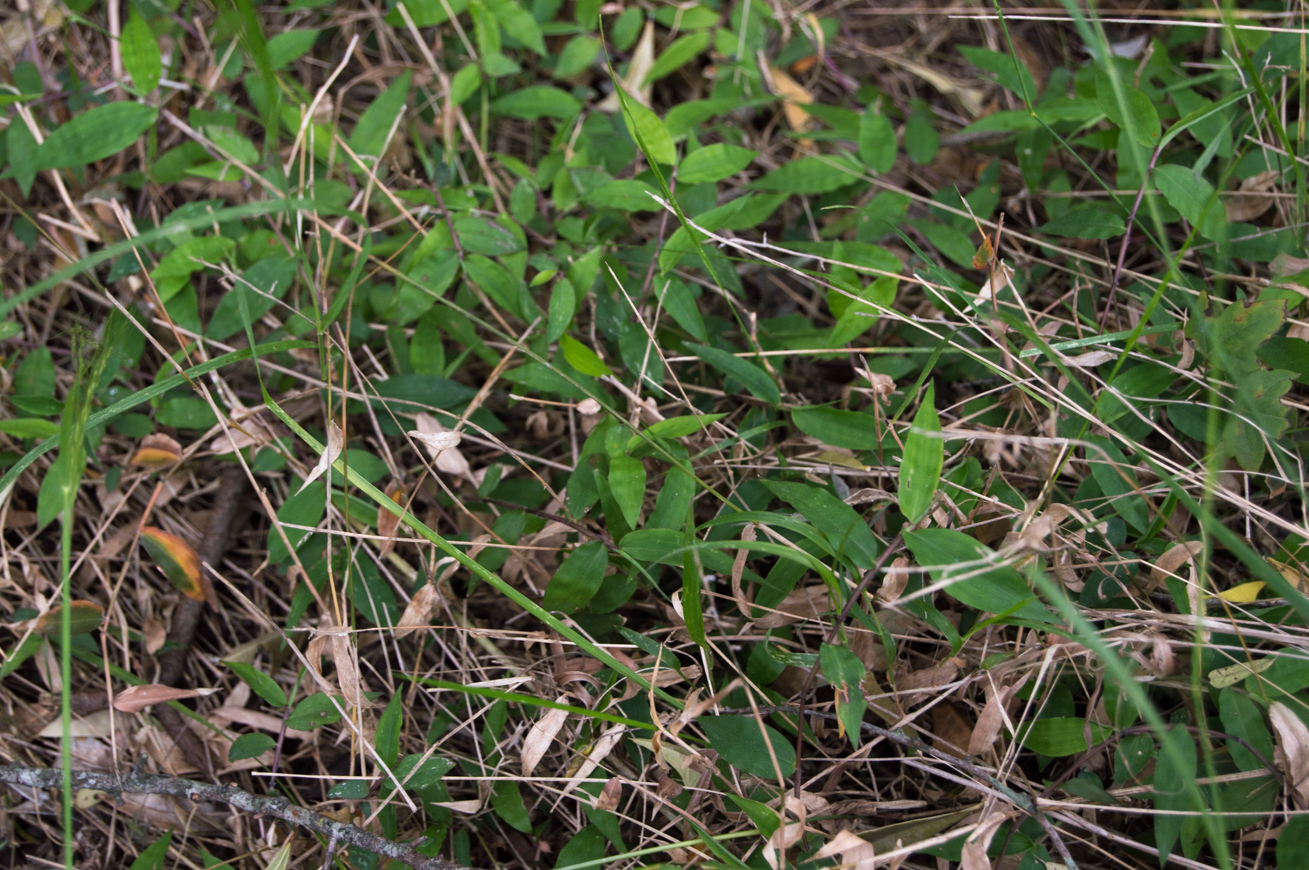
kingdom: Plantae
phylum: Tracheophyta
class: Liliopsida
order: Poales
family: Poaceae
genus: Oplismenus
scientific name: Oplismenus hirtellus
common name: Basketgrass
